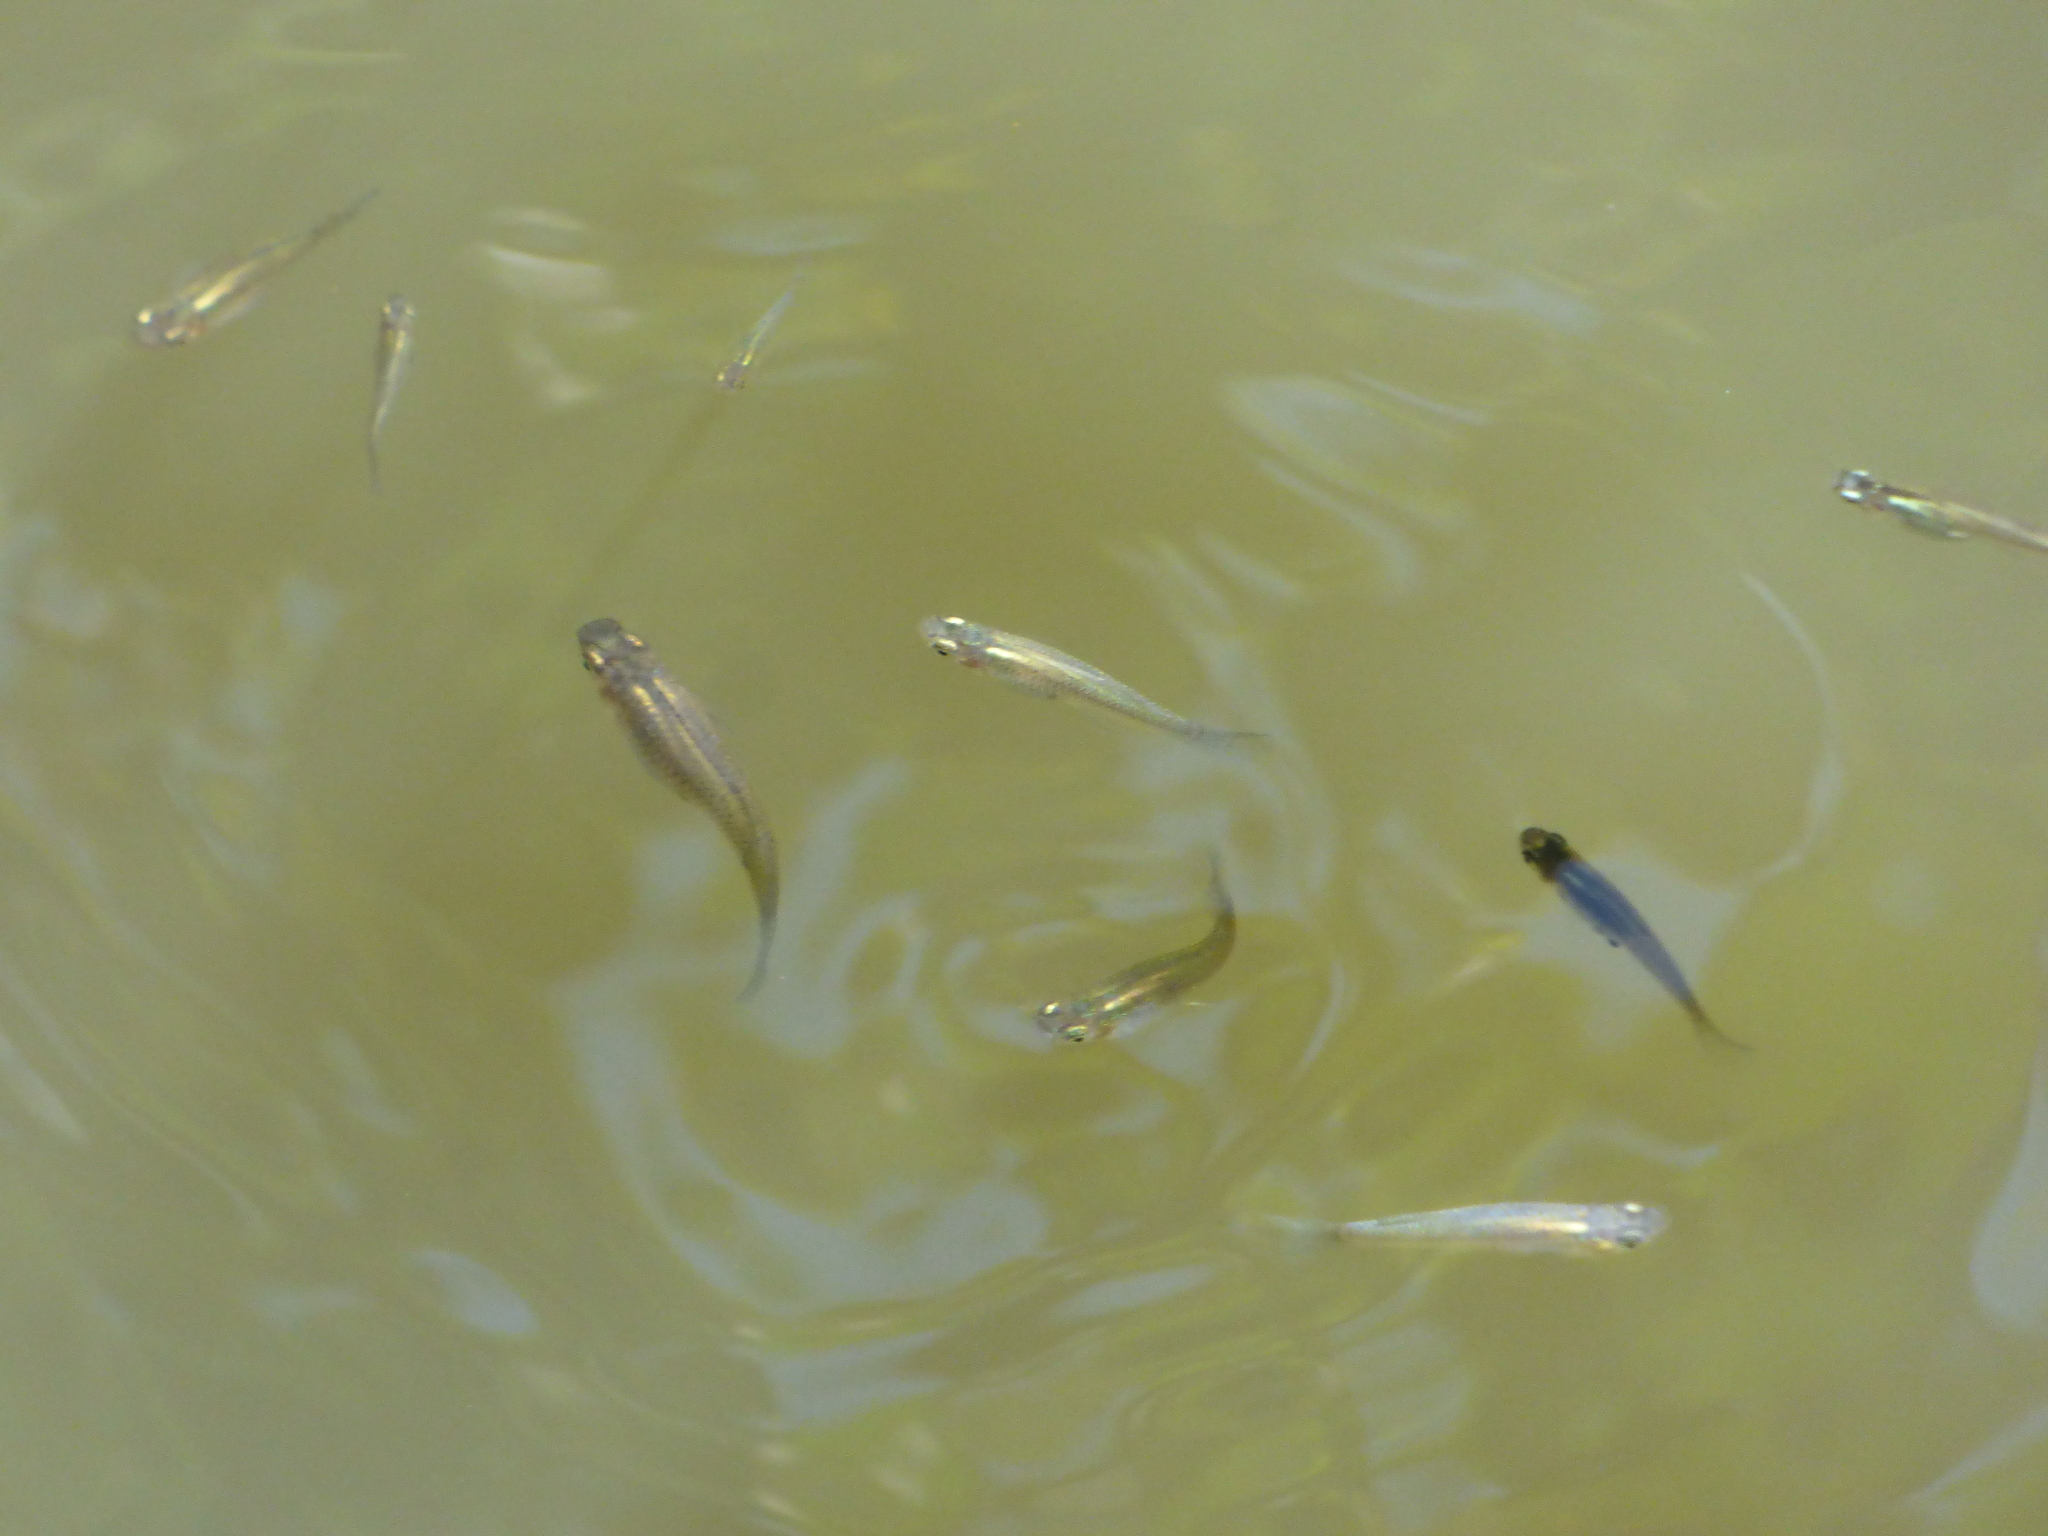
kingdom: Animalia
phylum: Chordata
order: Cyprinodontiformes
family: Poeciliidae
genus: Gambusia
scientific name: Gambusia affinis
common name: Mosquitofish
